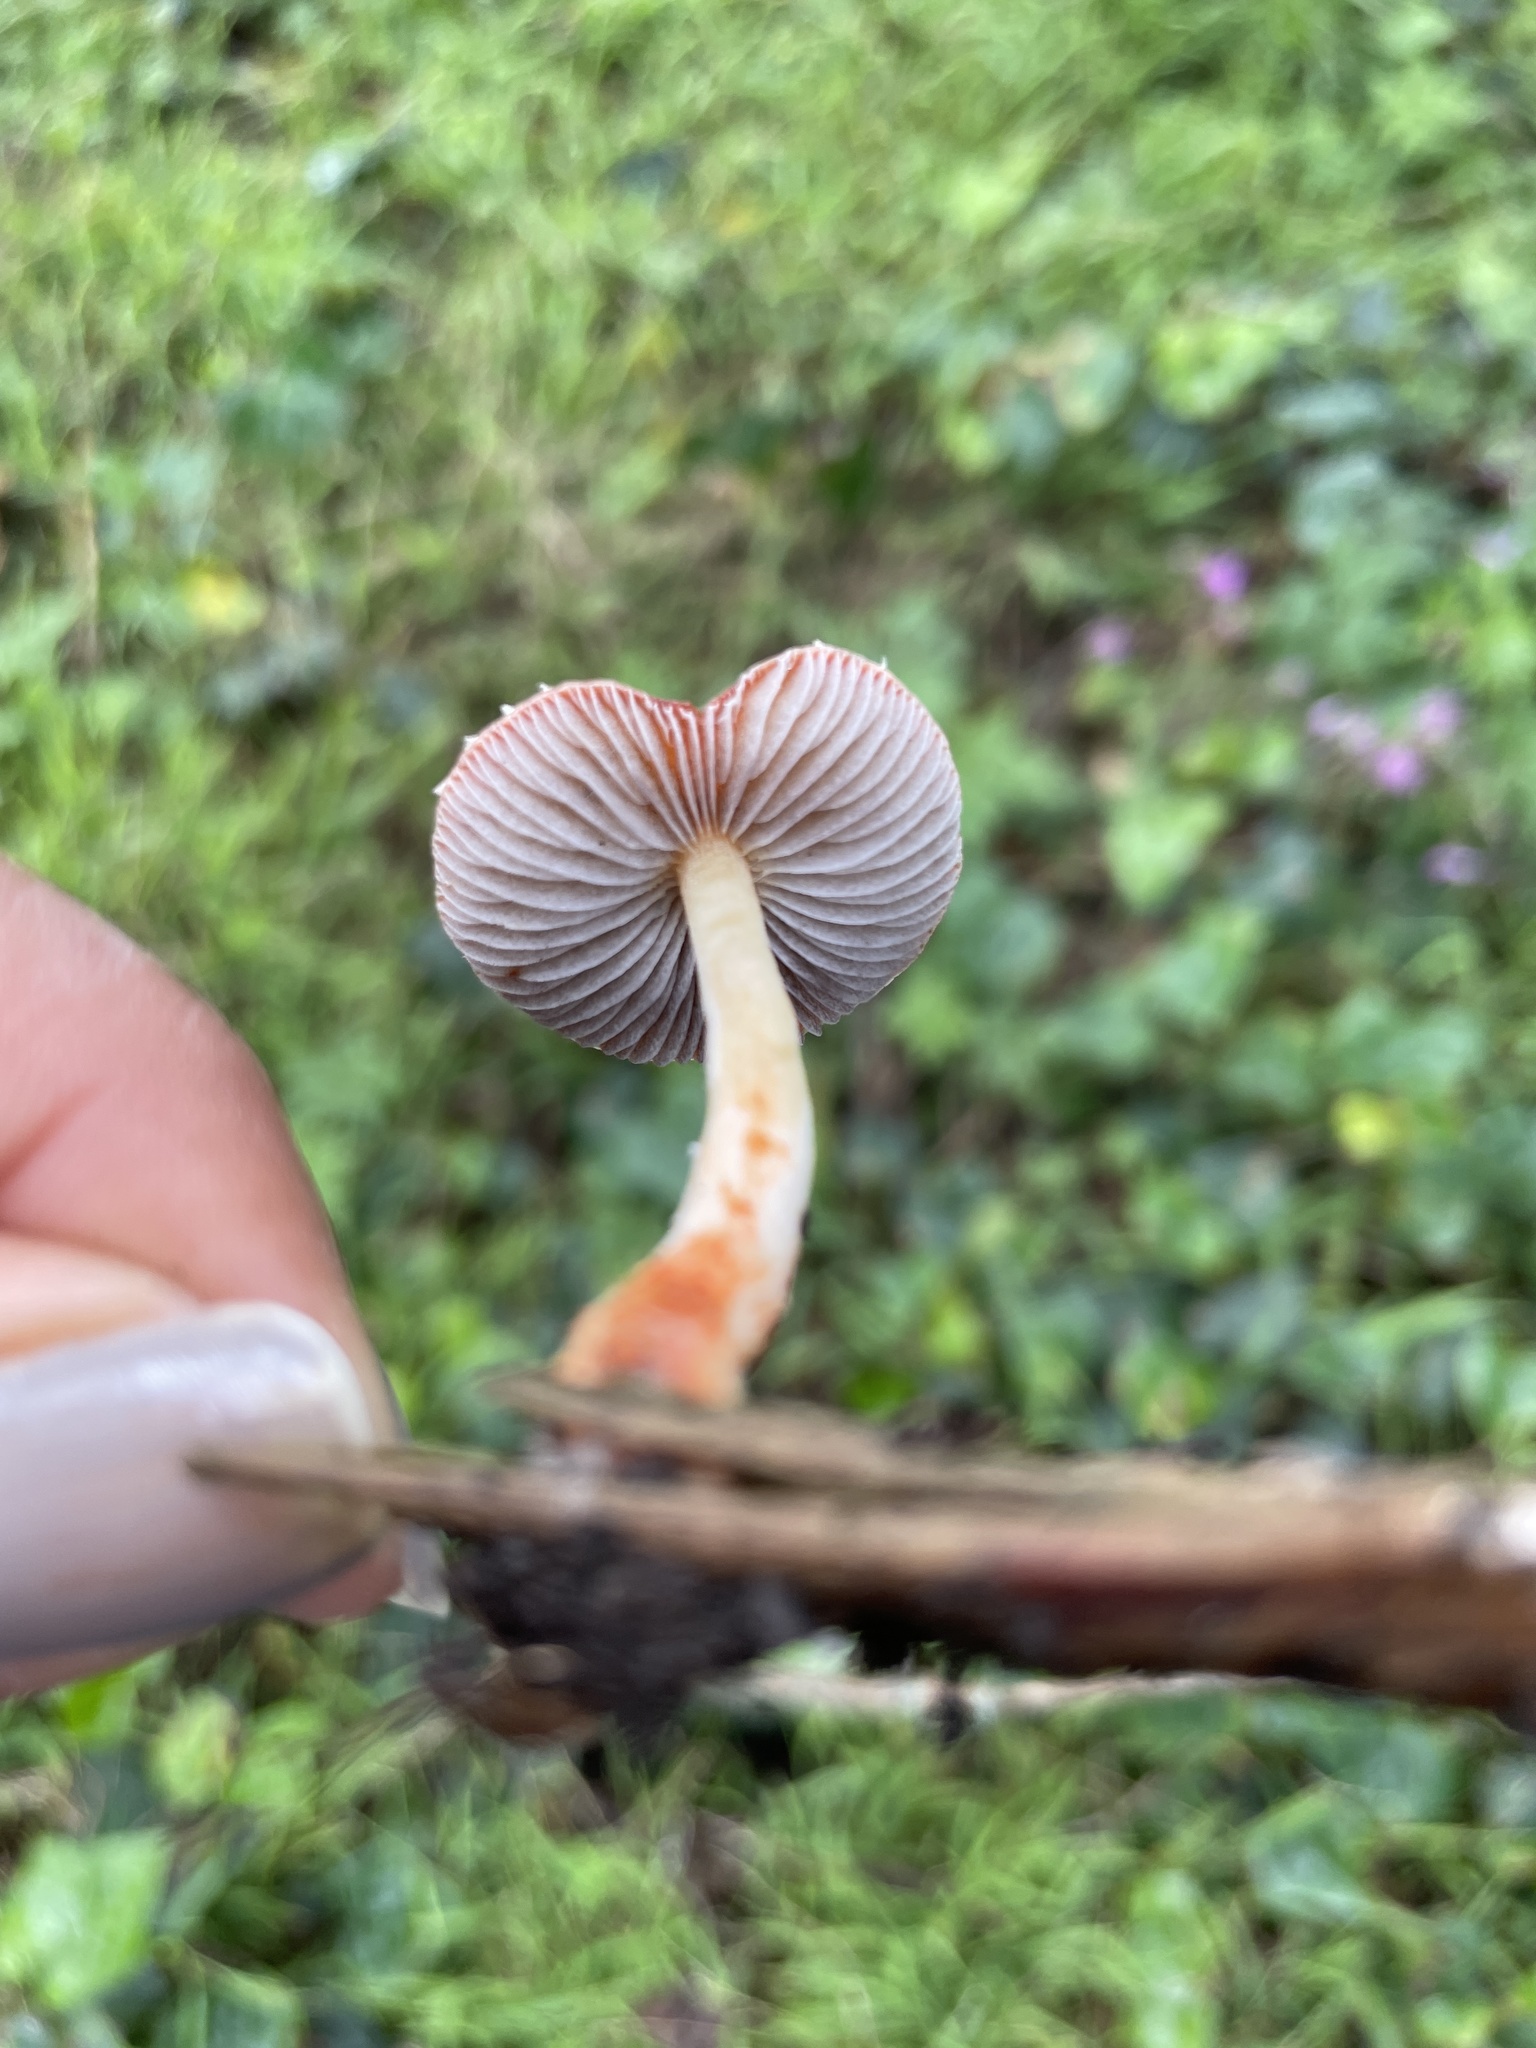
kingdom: Fungi
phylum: Basidiomycota
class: Agaricomycetes
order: Agaricales
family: Strophariaceae
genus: Leratiomyces
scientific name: Leratiomyces ceres
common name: Redlead roundhead
